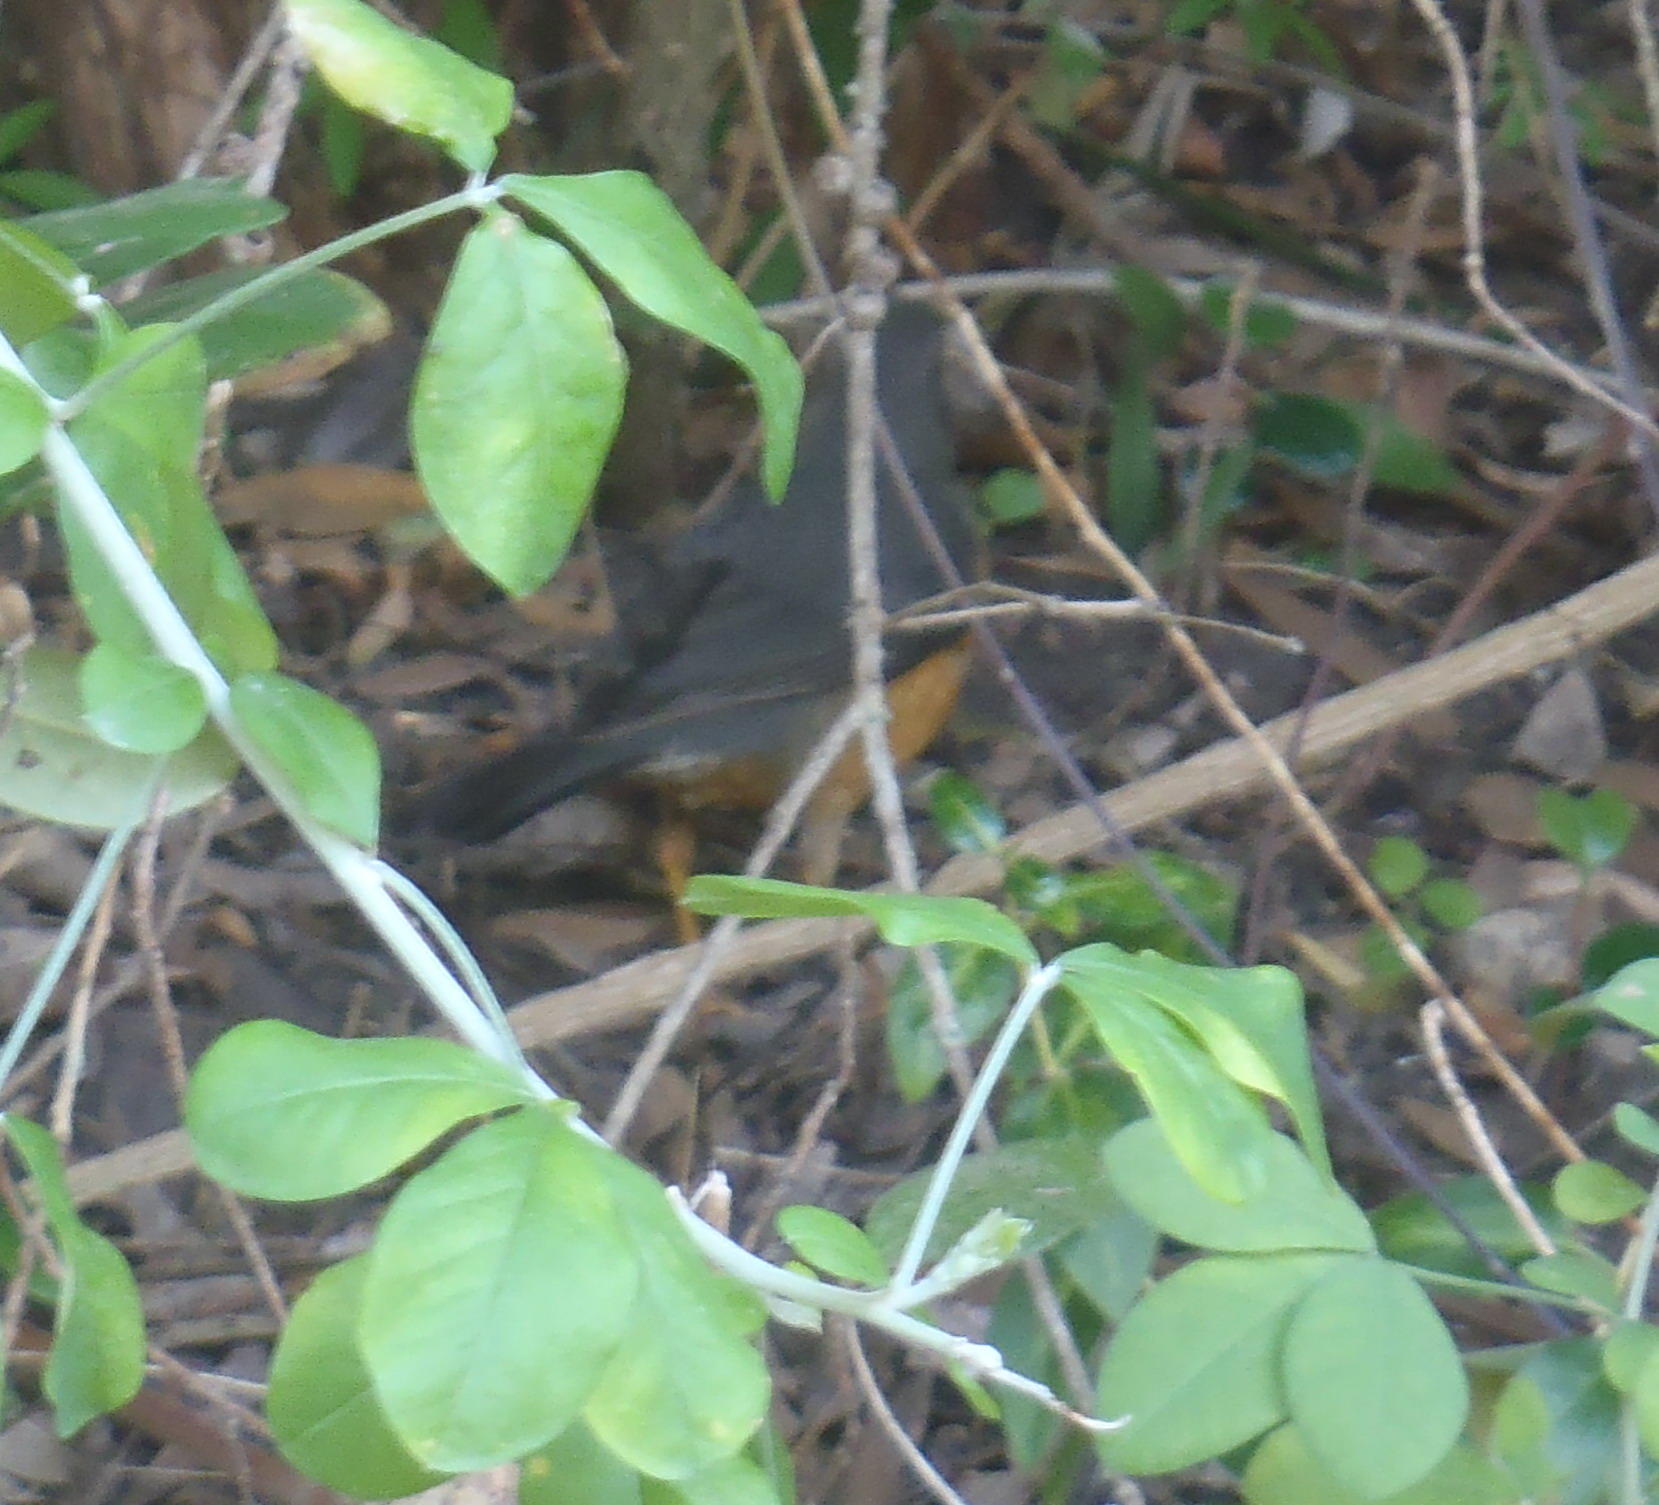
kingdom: Animalia
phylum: Chordata
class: Aves
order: Passeriformes
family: Turdidae
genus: Turdus
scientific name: Turdus olivaceus
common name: Olive thrush
